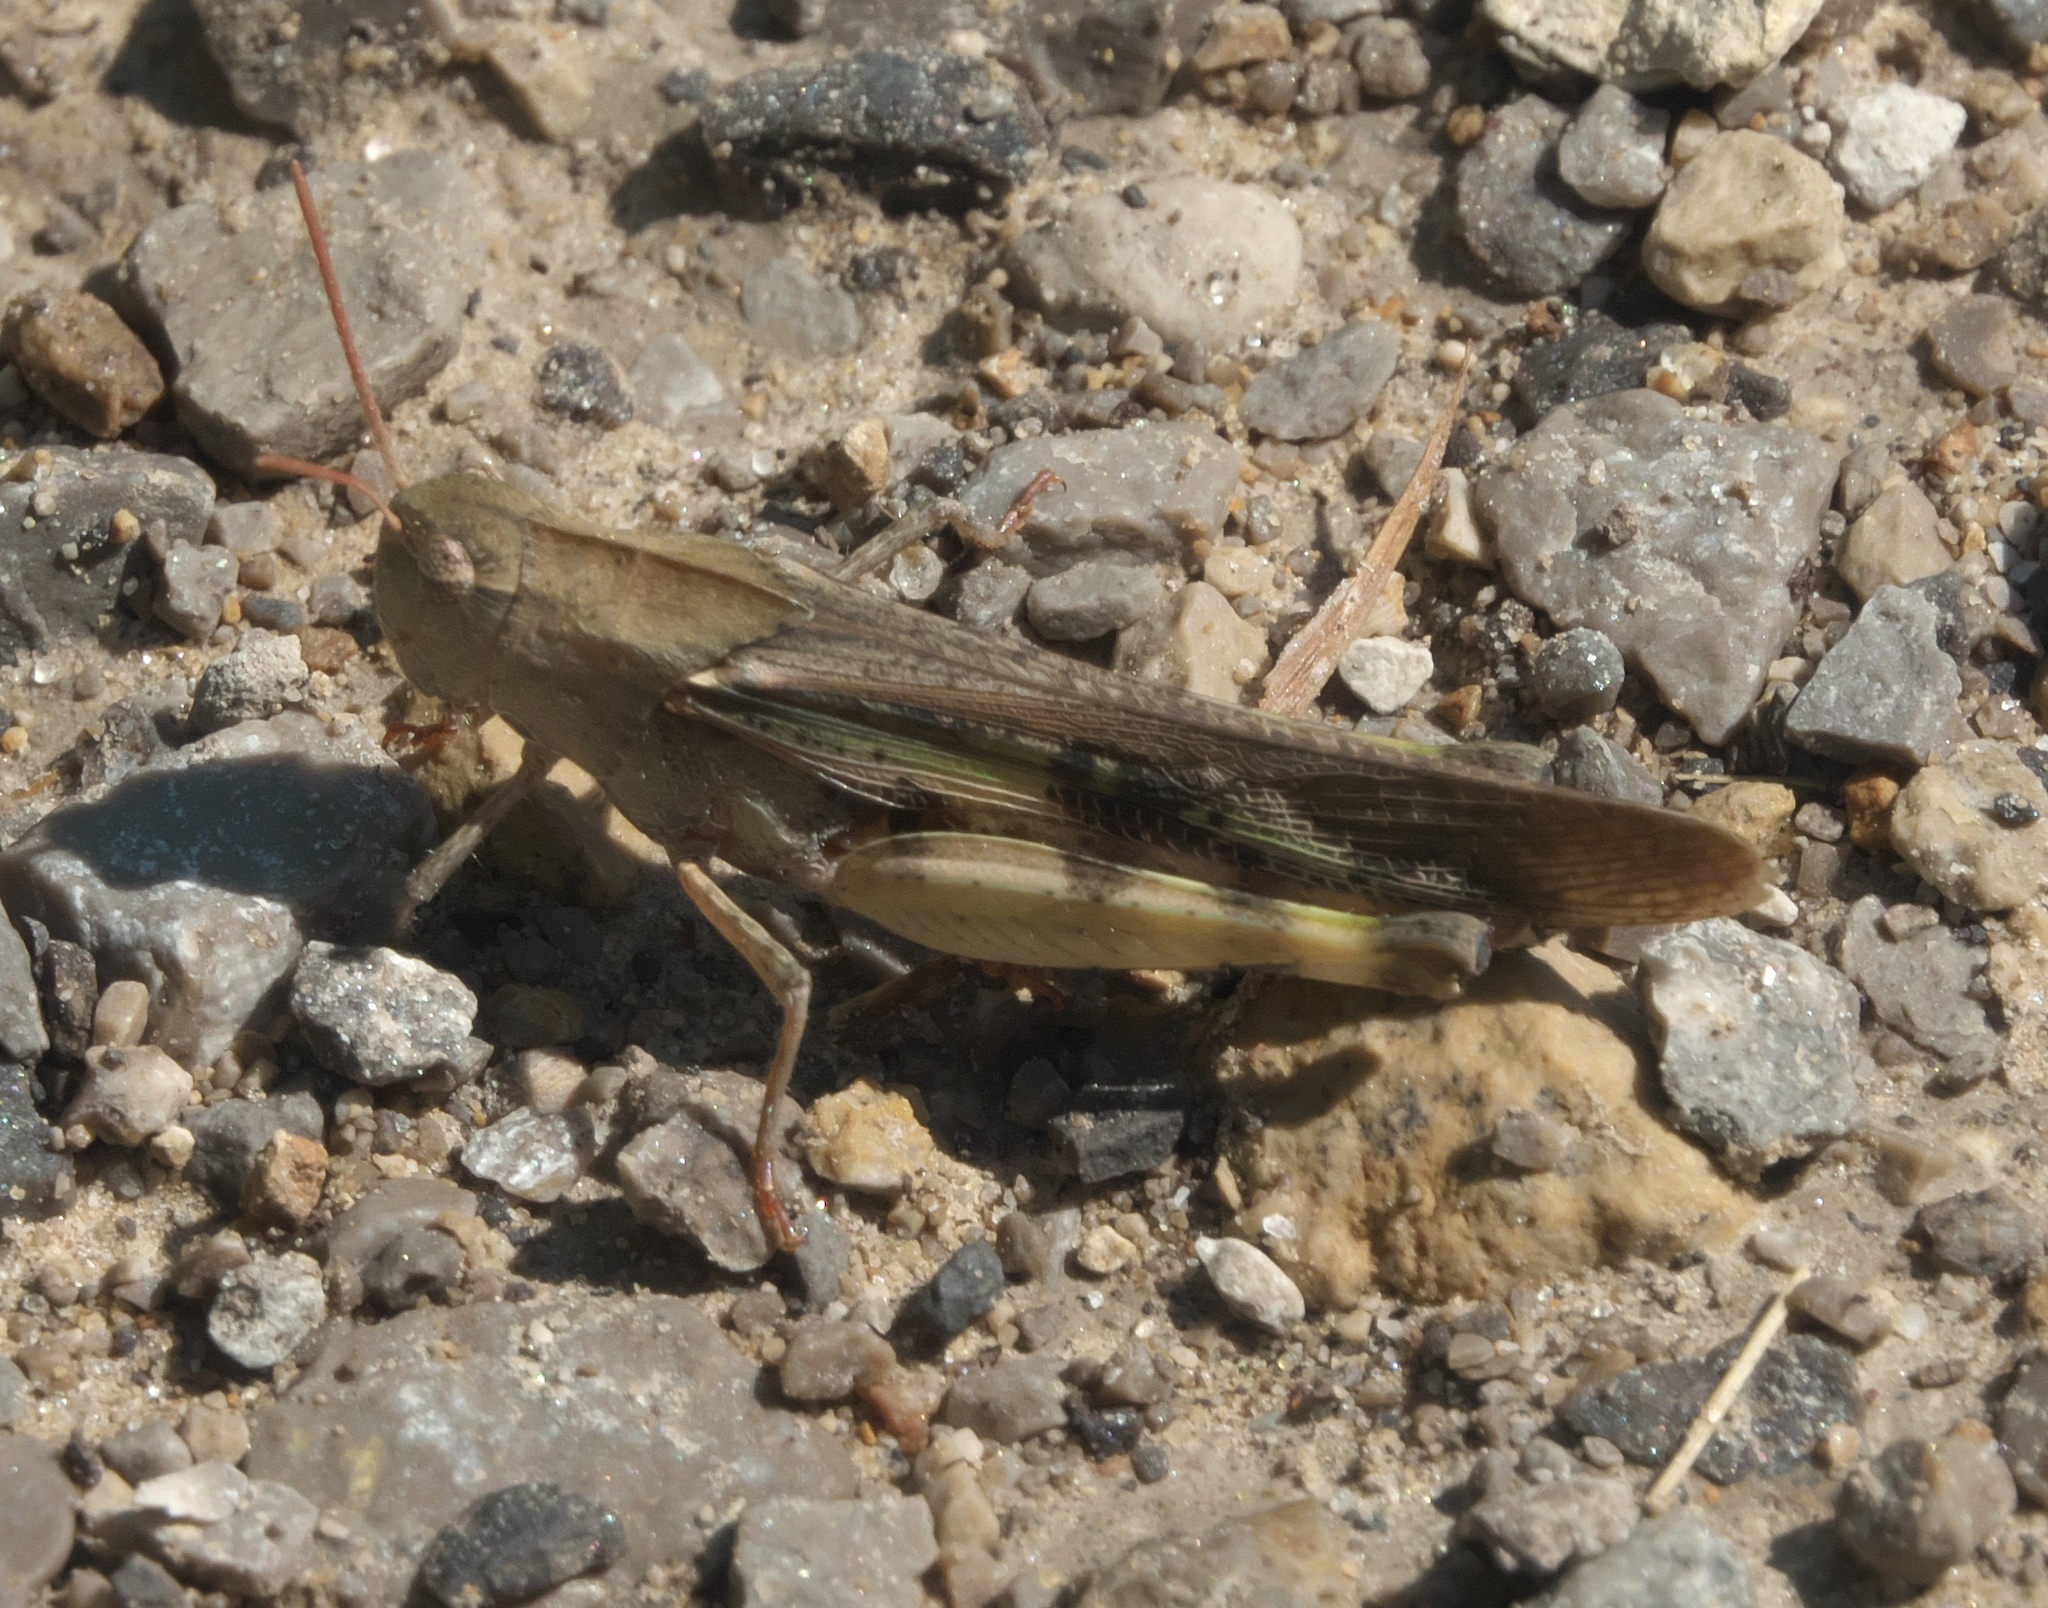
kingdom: Animalia
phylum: Arthropoda
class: Insecta
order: Orthoptera
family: Acrididae
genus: Chortophaga
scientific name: Chortophaga viridifasciata
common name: Green-striped grasshopper
